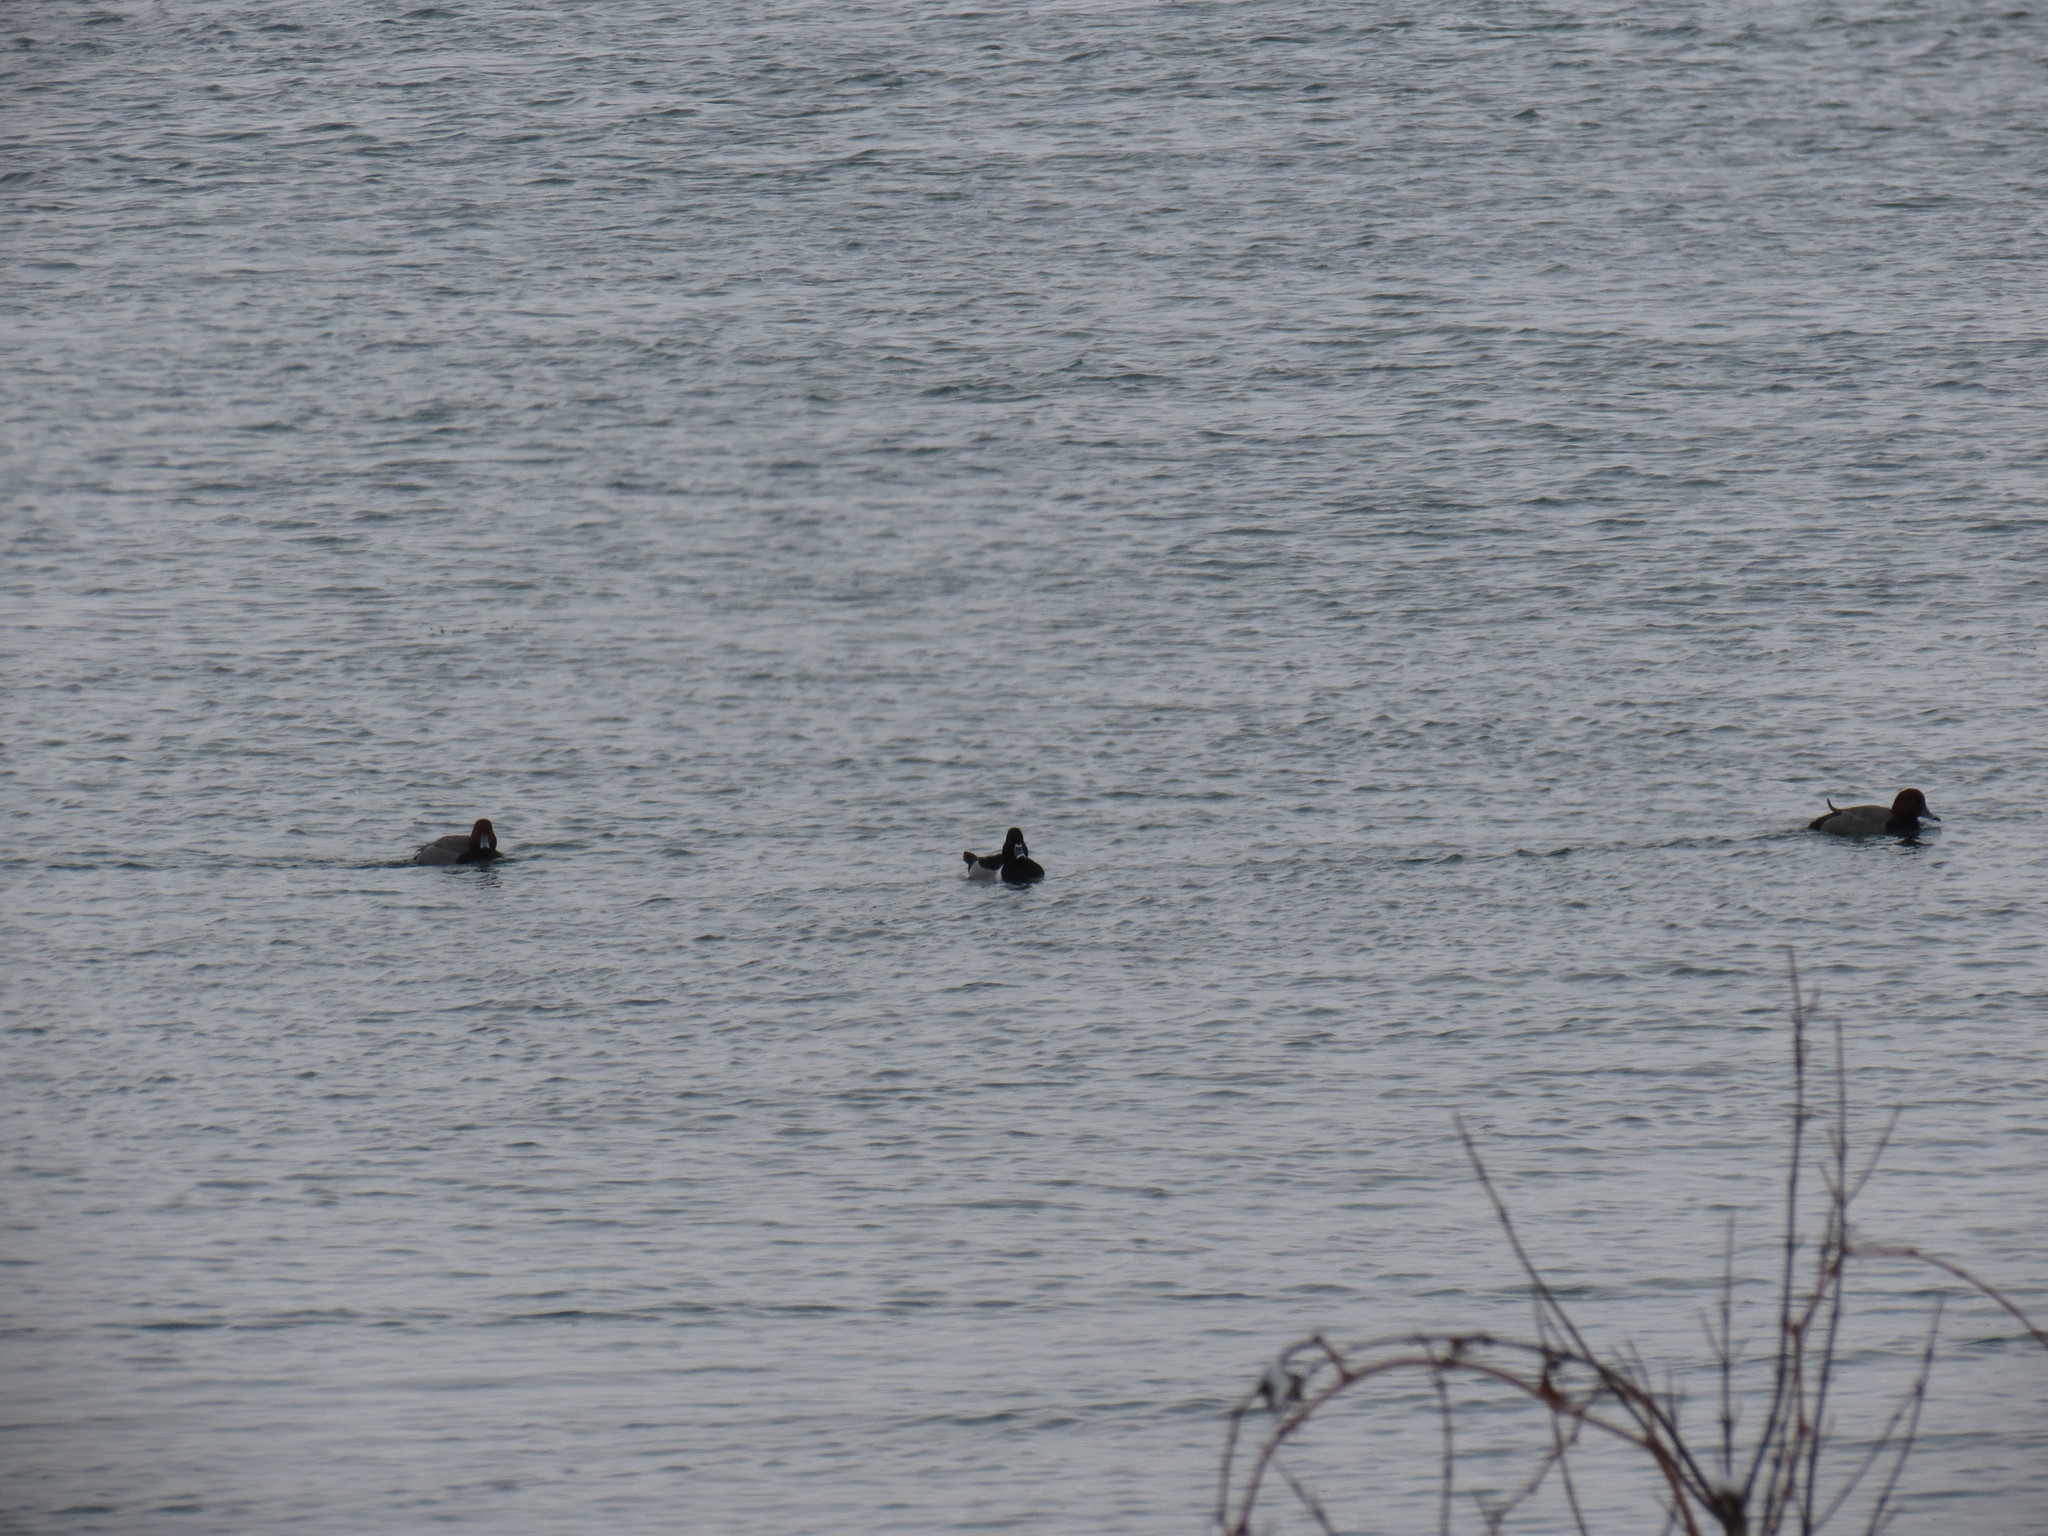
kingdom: Animalia
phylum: Chordata
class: Aves
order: Anseriformes
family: Anatidae
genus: Aythya
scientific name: Aythya collaris
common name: Ring-necked duck
